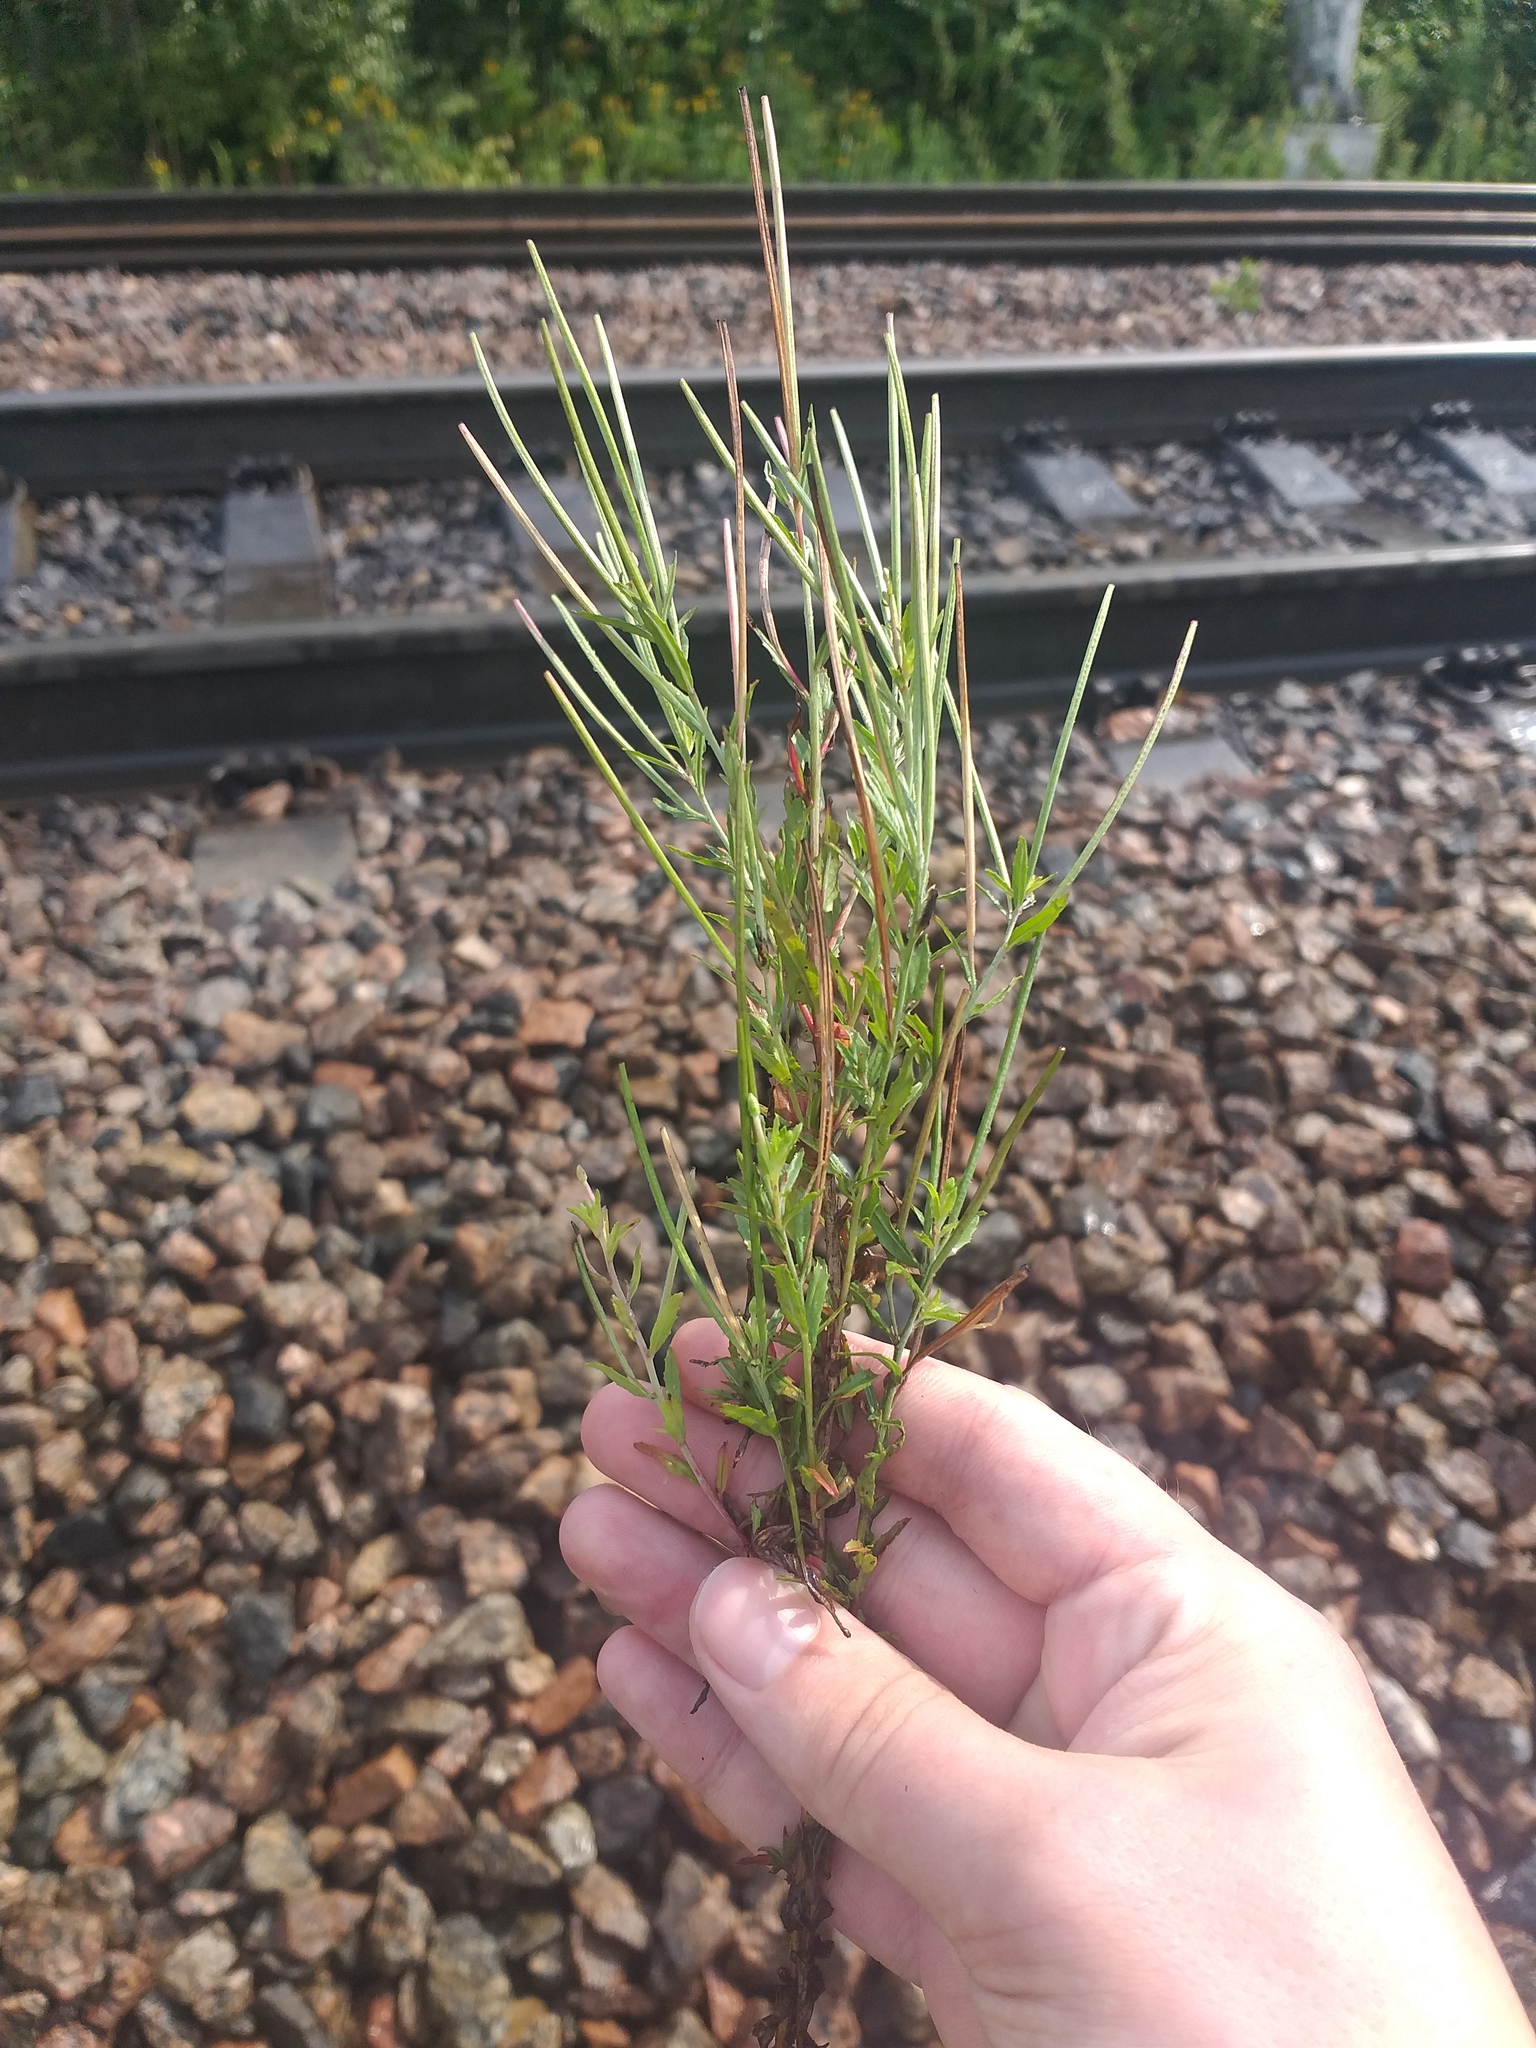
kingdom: Plantae
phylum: Tracheophyta
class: Magnoliopsida
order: Myrtales
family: Onagraceae
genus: Epilobium
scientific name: Epilobium tetragonum
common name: Square-stemmed willowherb
